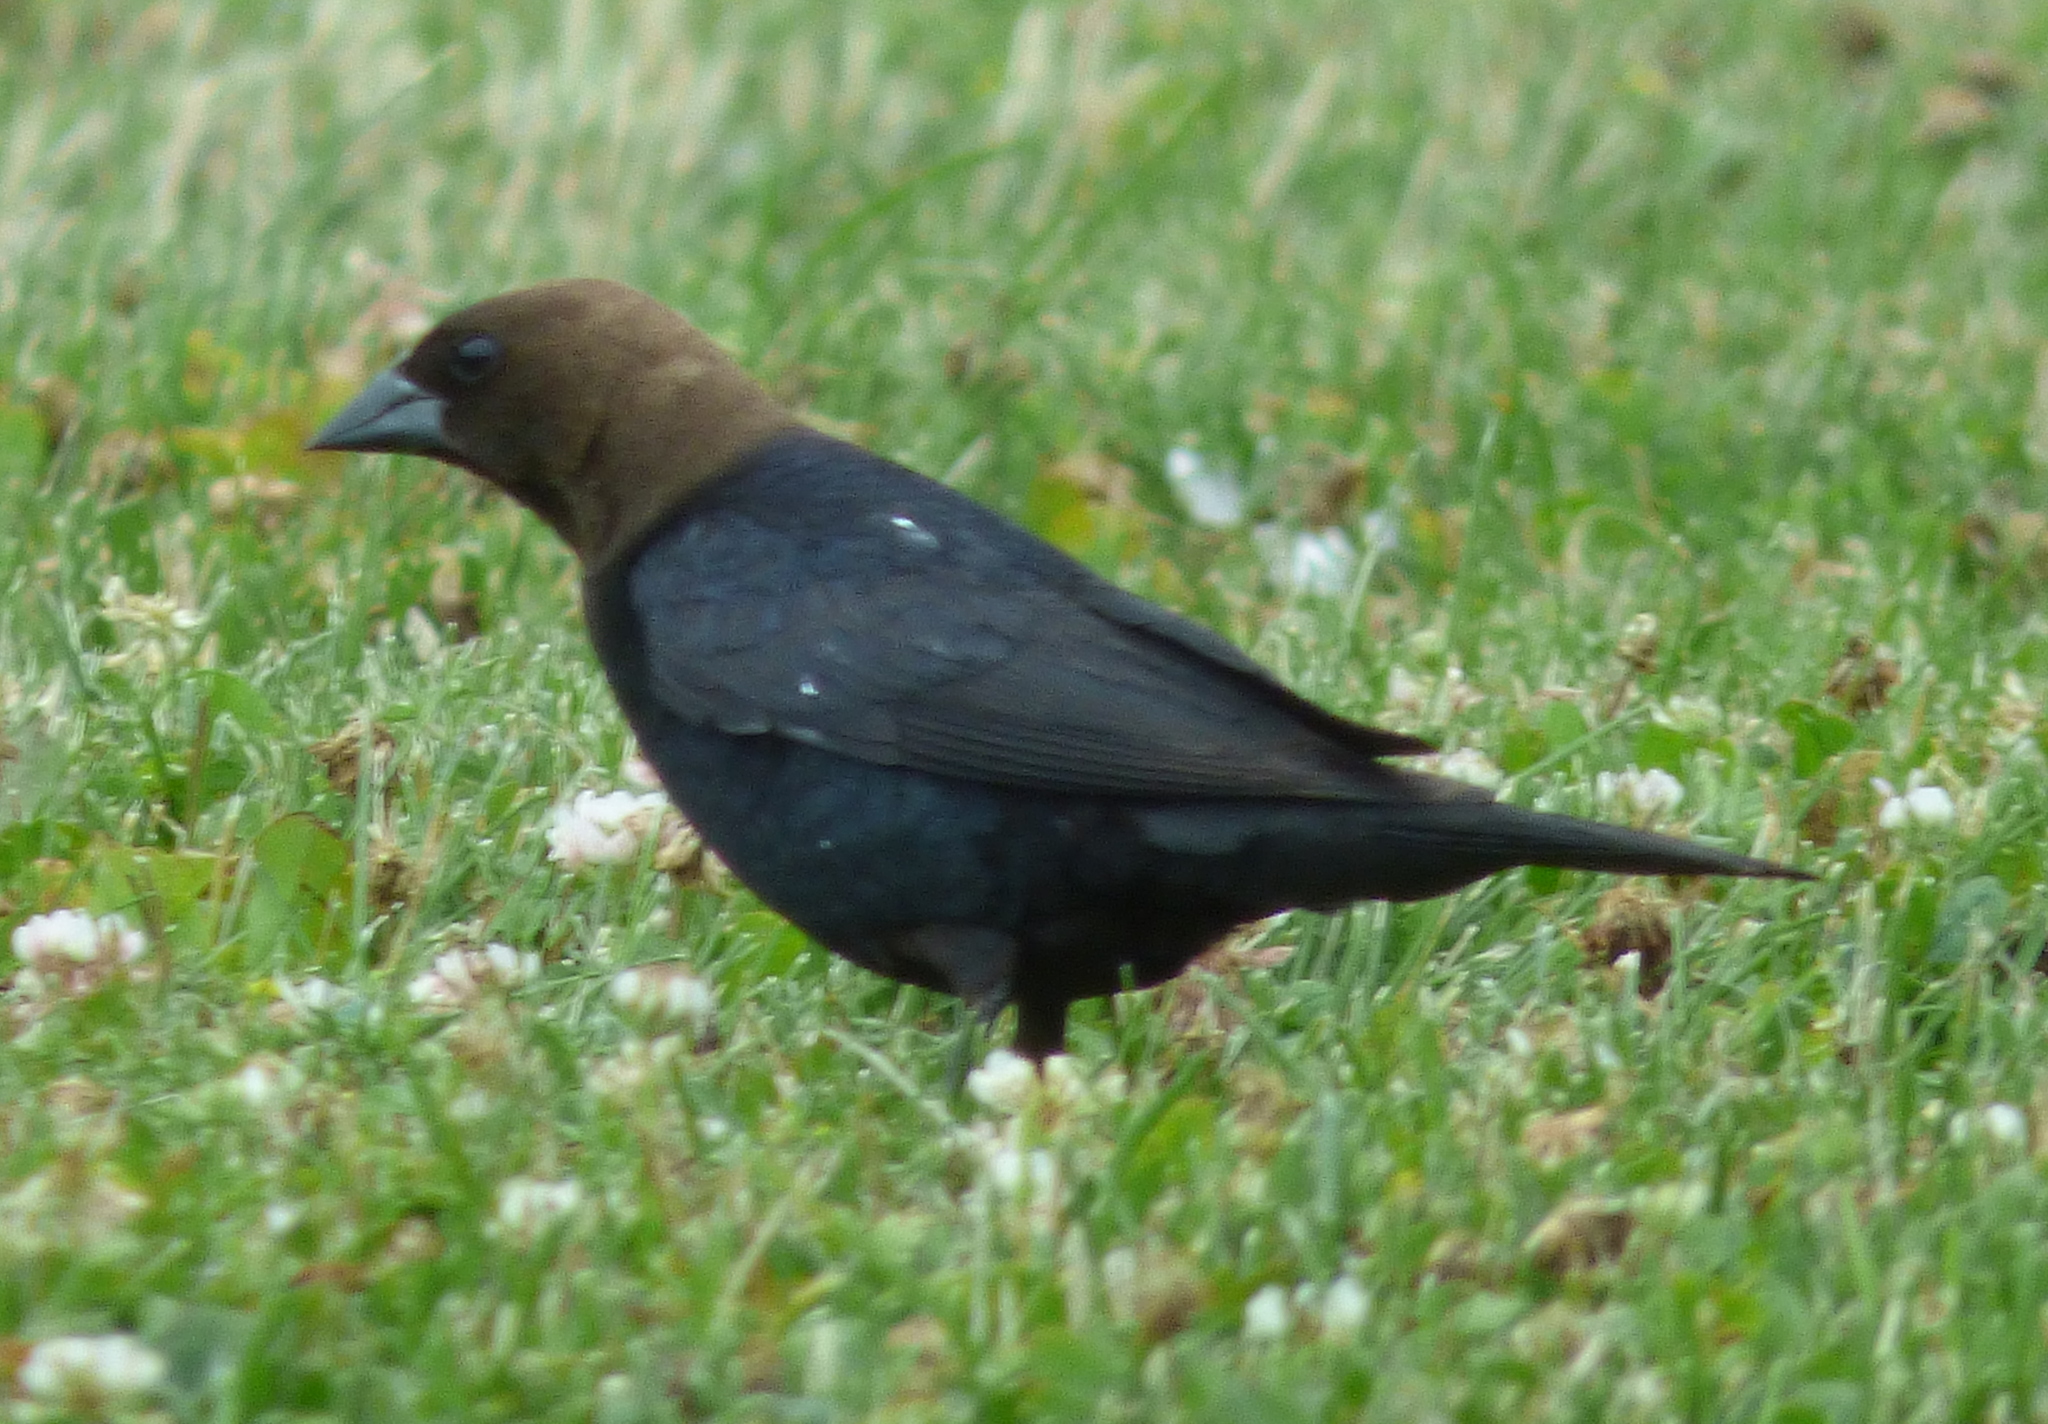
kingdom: Animalia
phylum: Chordata
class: Aves
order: Passeriformes
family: Icteridae
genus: Molothrus
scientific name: Molothrus ater
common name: Brown-headed cowbird
